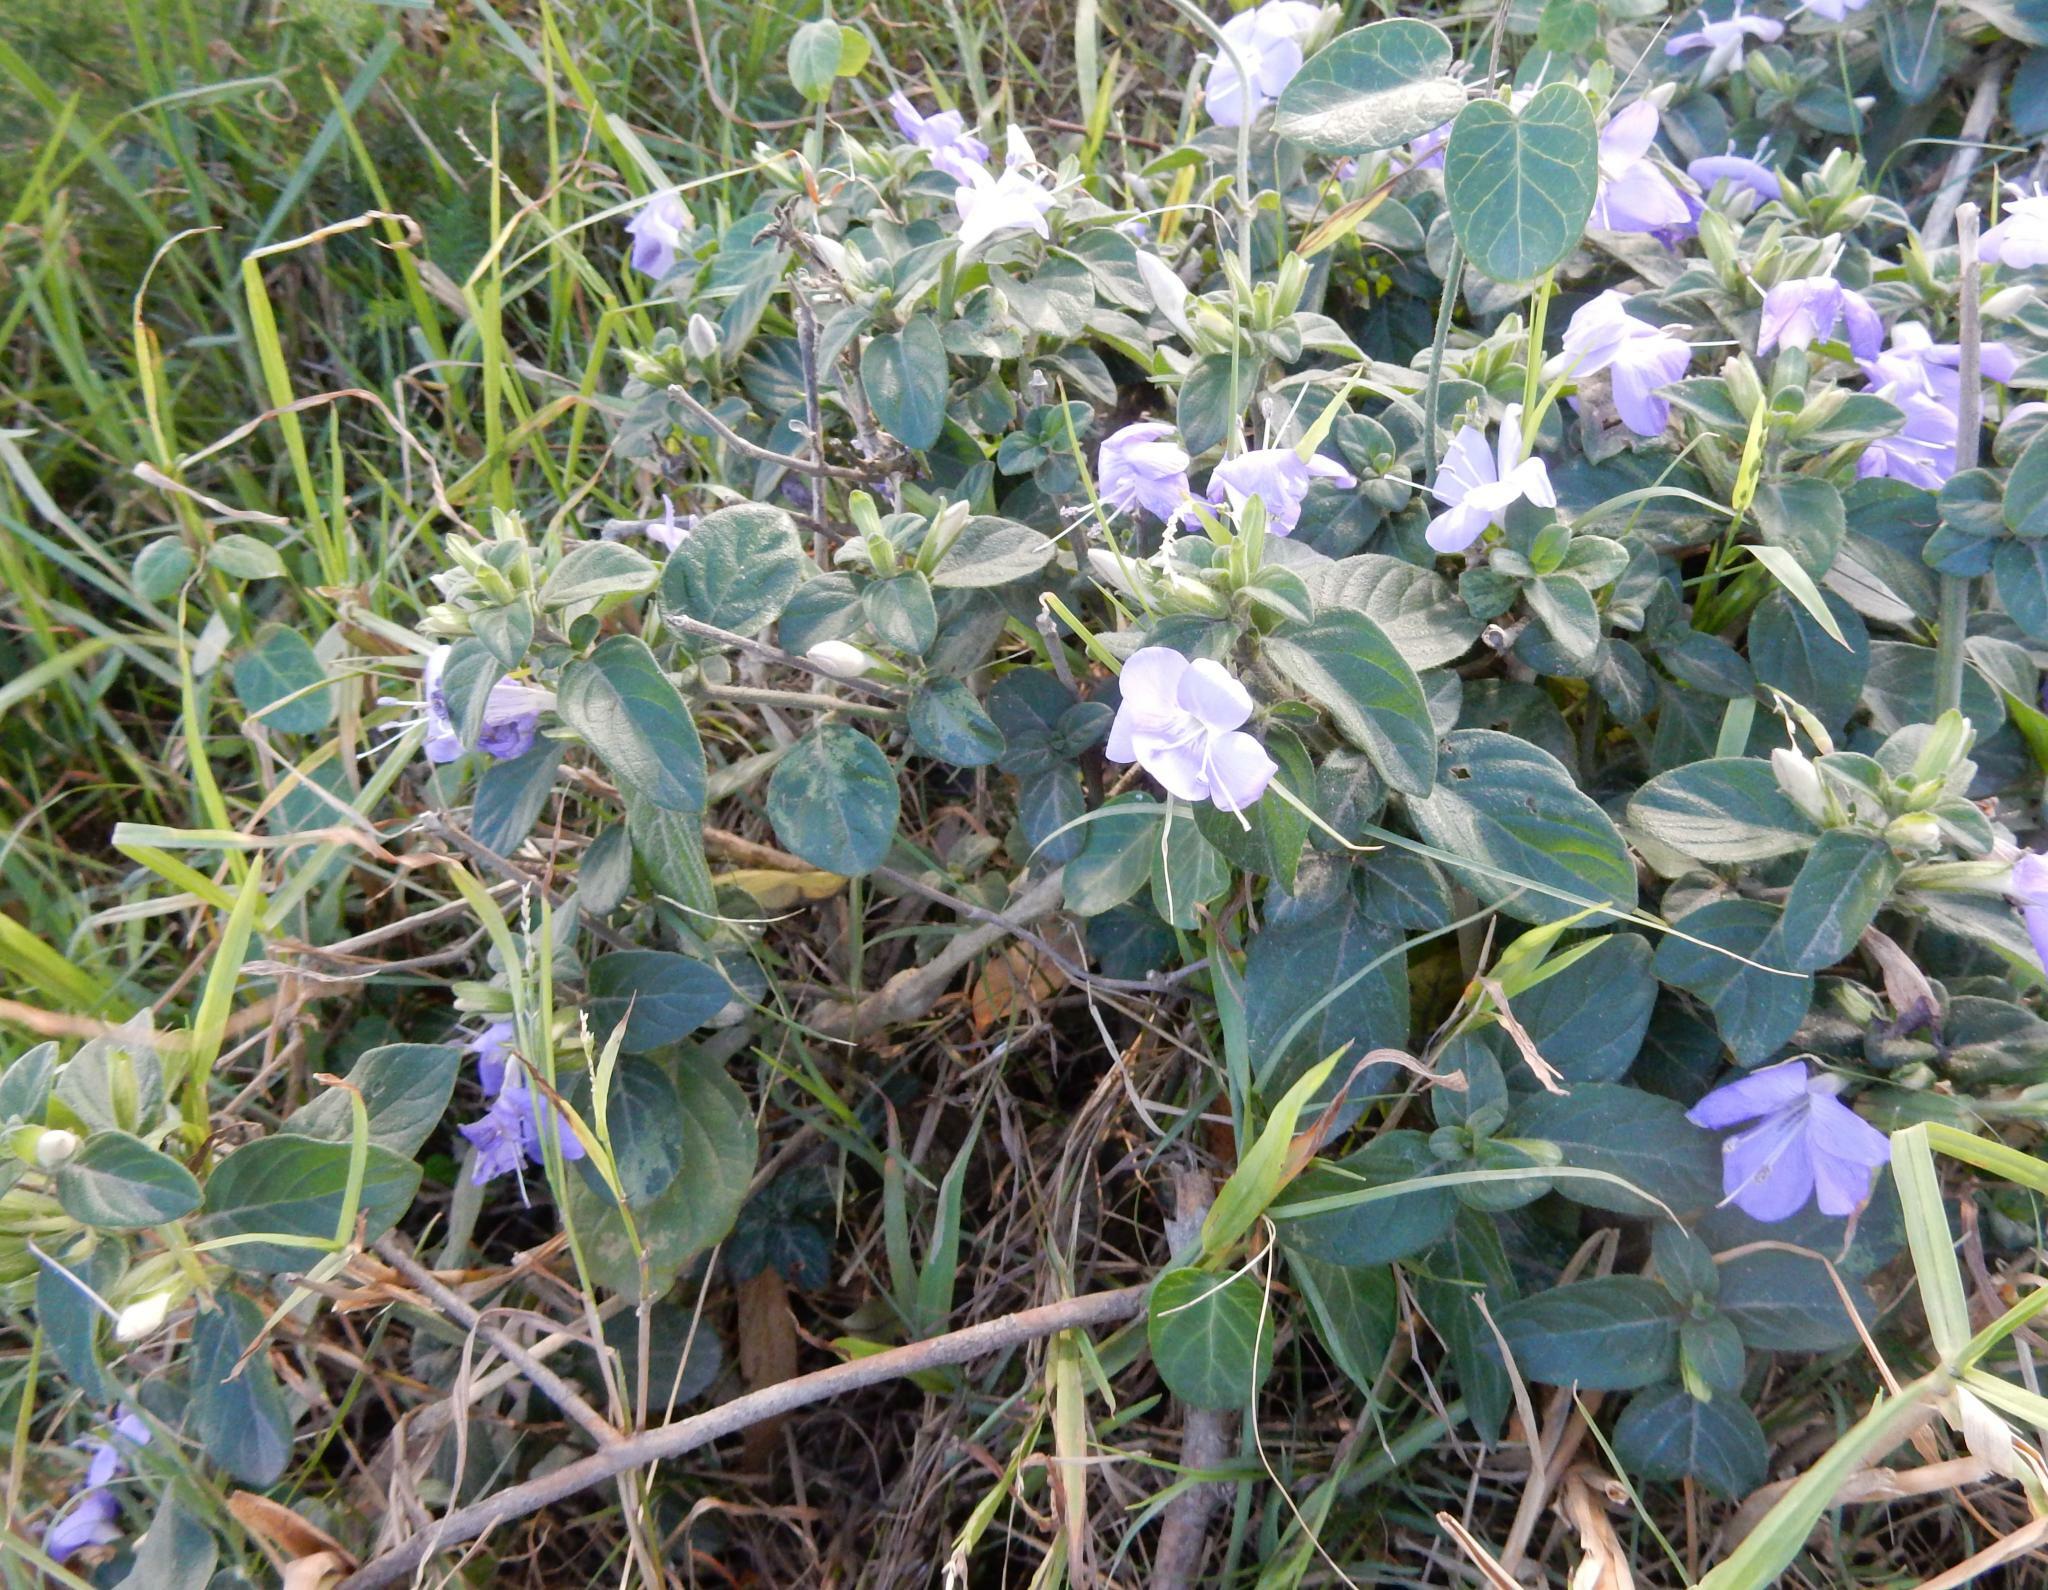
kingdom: Plantae
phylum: Tracheophyta
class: Magnoliopsida
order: Lamiales
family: Acanthaceae
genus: Barleria
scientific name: Barleria obtusa
